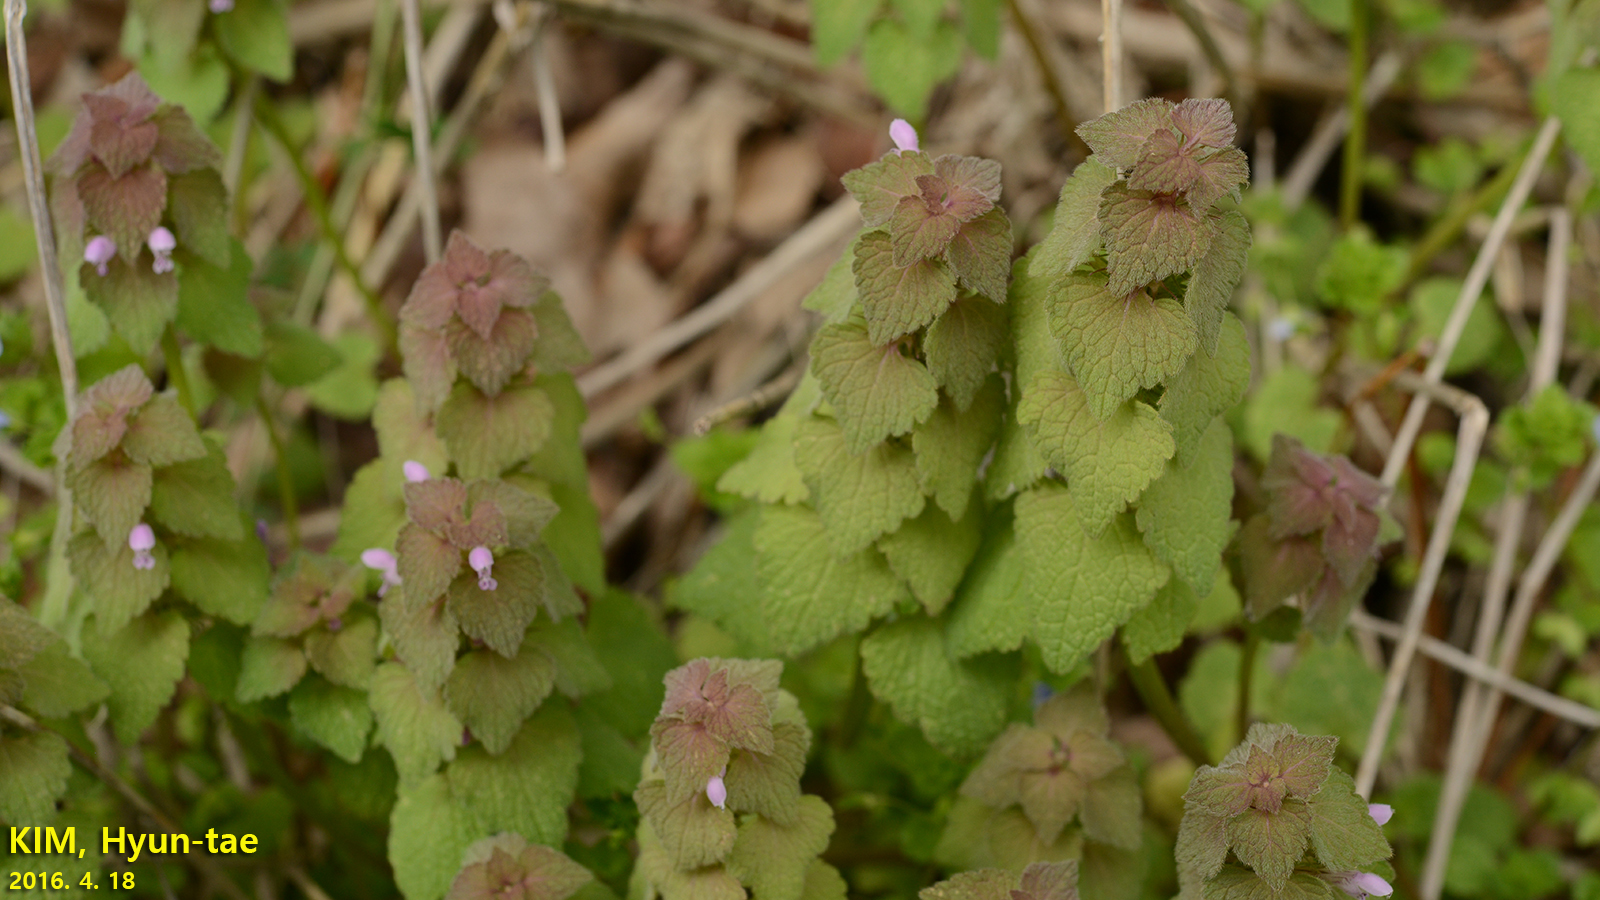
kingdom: Plantae
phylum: Tracheophyta
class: Magnoliopsida
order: Lamiales
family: Lamiaceae
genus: Lamium
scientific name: Lamium purpureum
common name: Red dead-nettle
